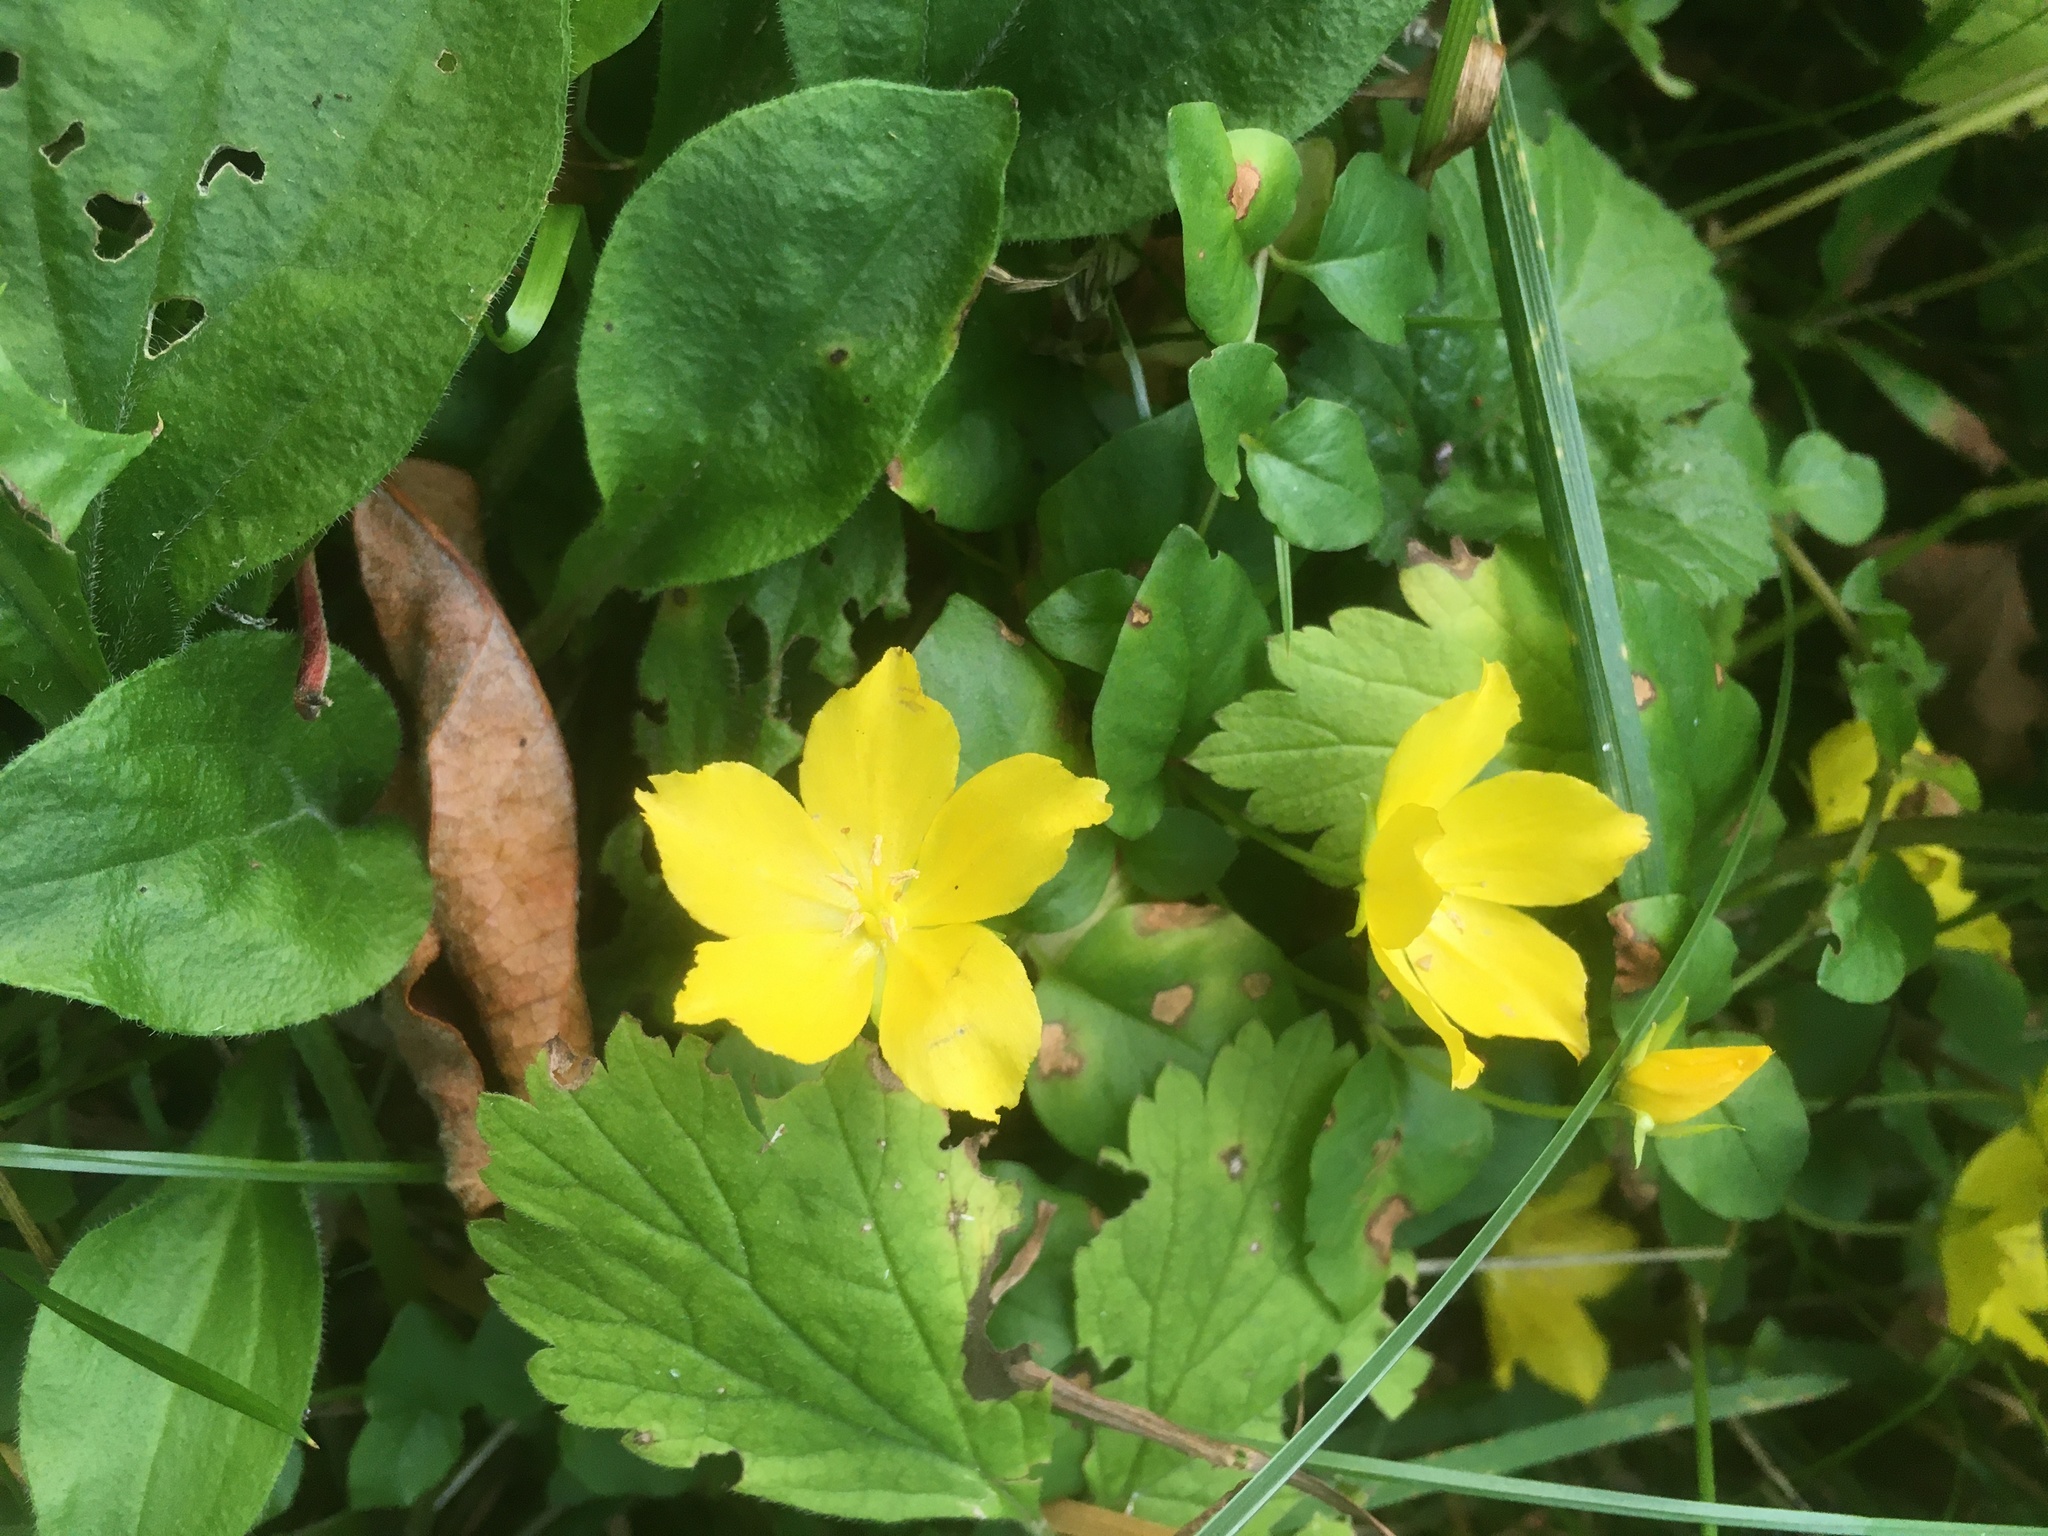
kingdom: Plantae
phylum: Tracheophyta
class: Magnoliopsida
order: Ericales
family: Primulaceae
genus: Lysimachia
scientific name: Lysimachia nummularia
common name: Moneywort
